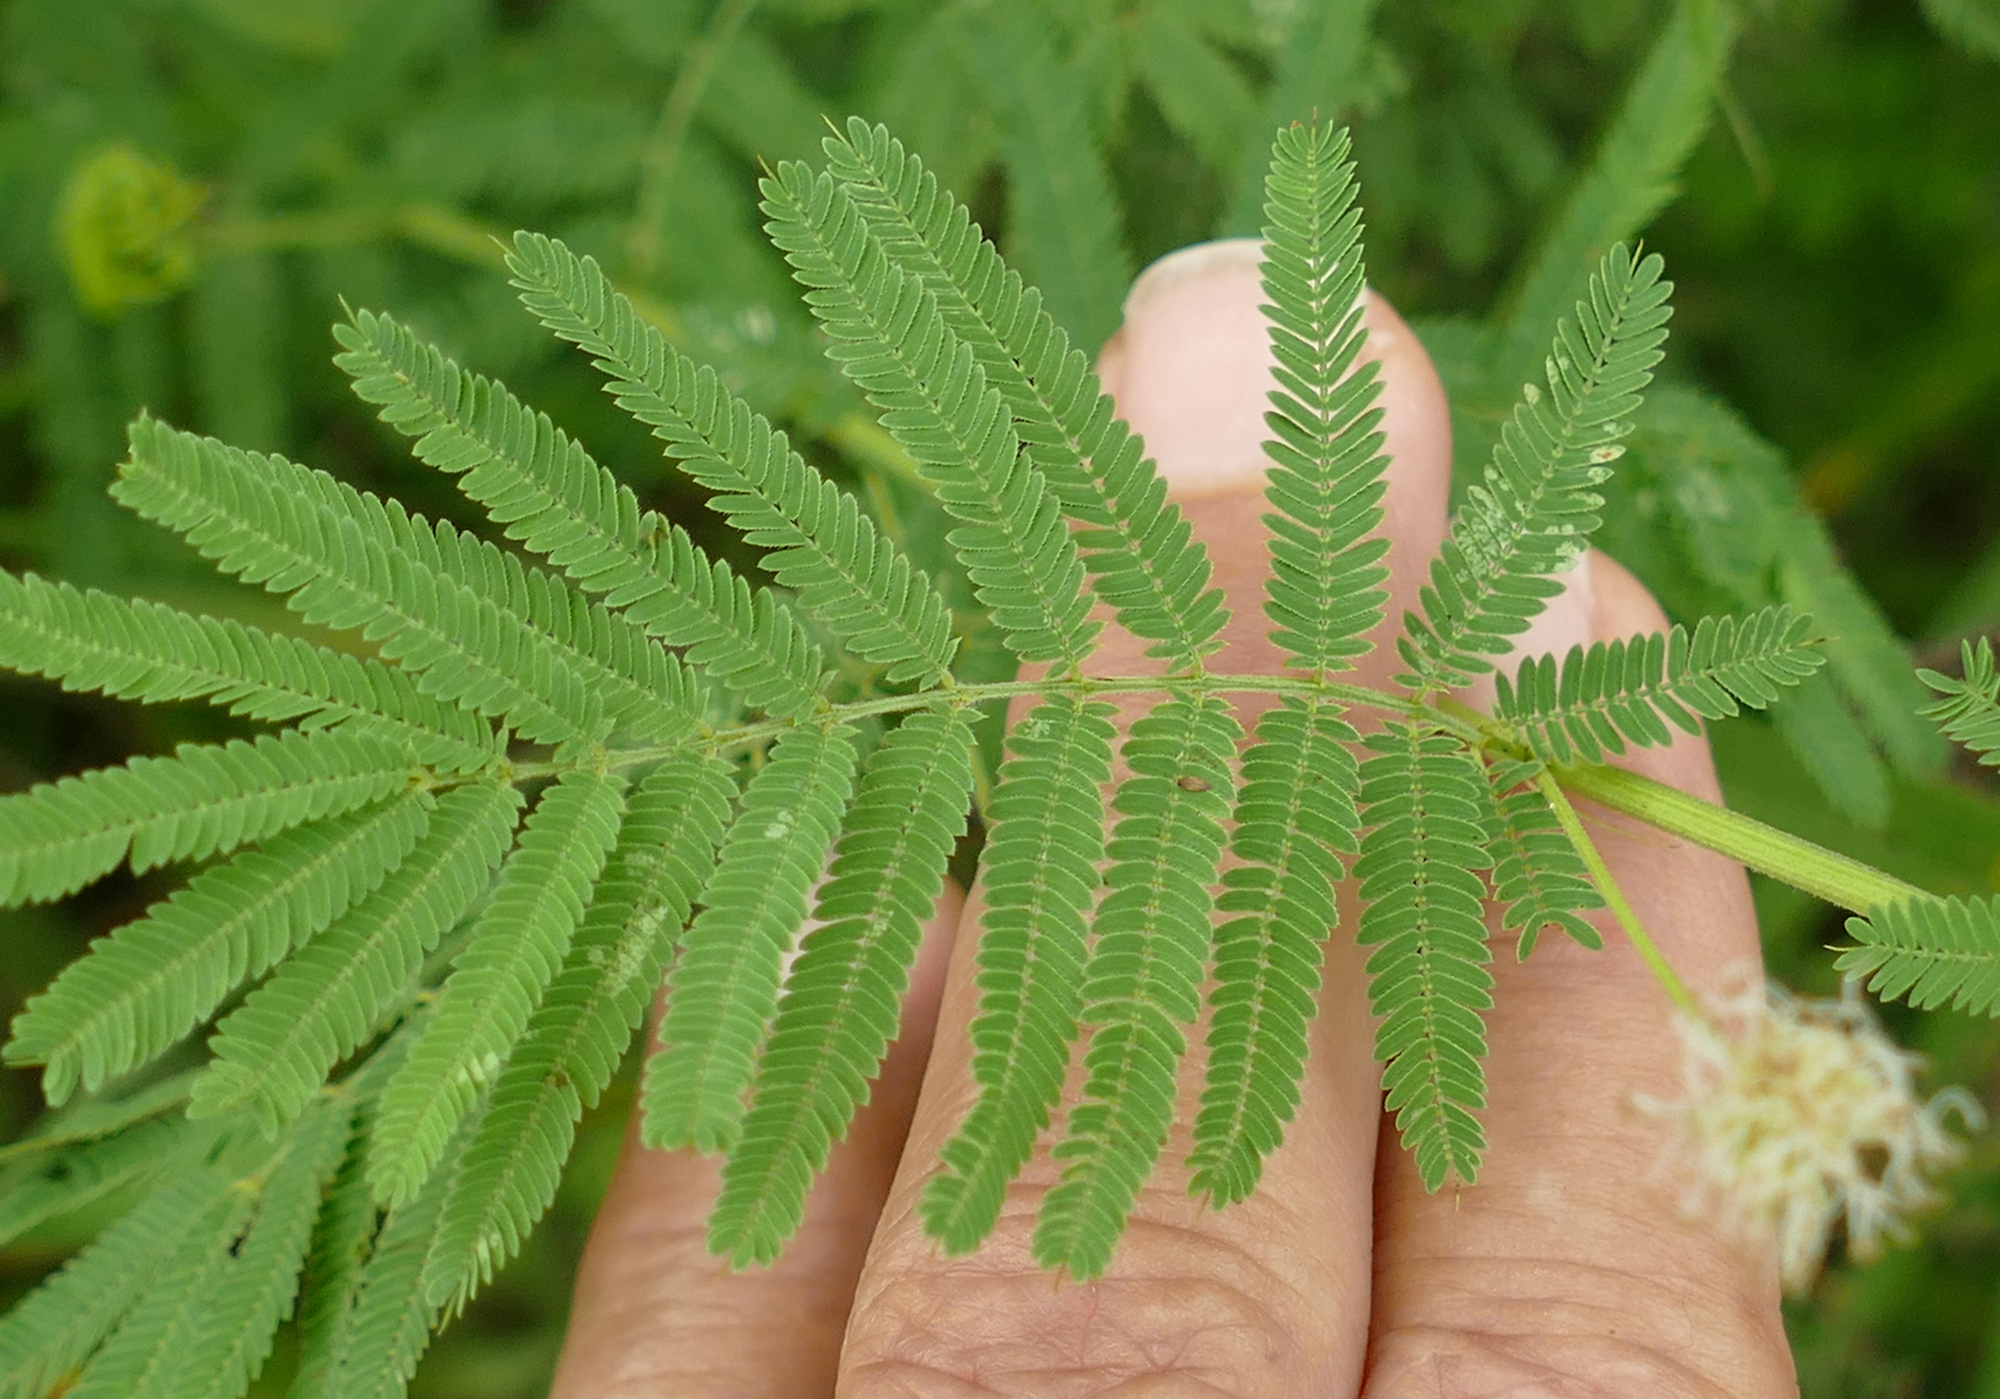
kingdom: Plantae
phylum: Tracheophyta
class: Magnoliopsida
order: Fabales
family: Fabaceae
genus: Desmanthus
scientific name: Desmanthus illinoensis
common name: Illinois bundle-flower
